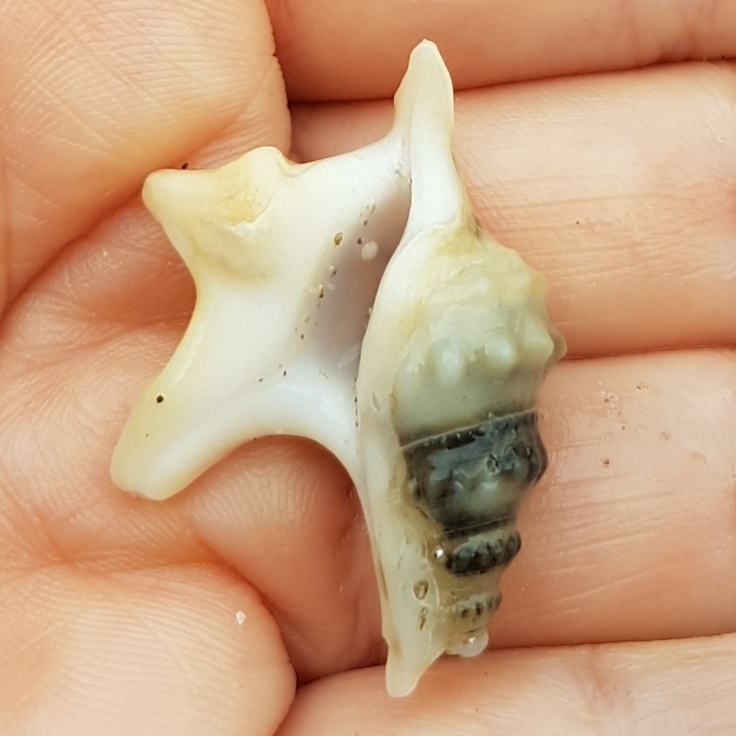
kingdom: Animalia
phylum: Mollusca
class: Gastropoda
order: Littorinimorpha
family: Aporrhaidae
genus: Aporrhais
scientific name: Aporrhais pespelecani
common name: Common pelican’s foot
